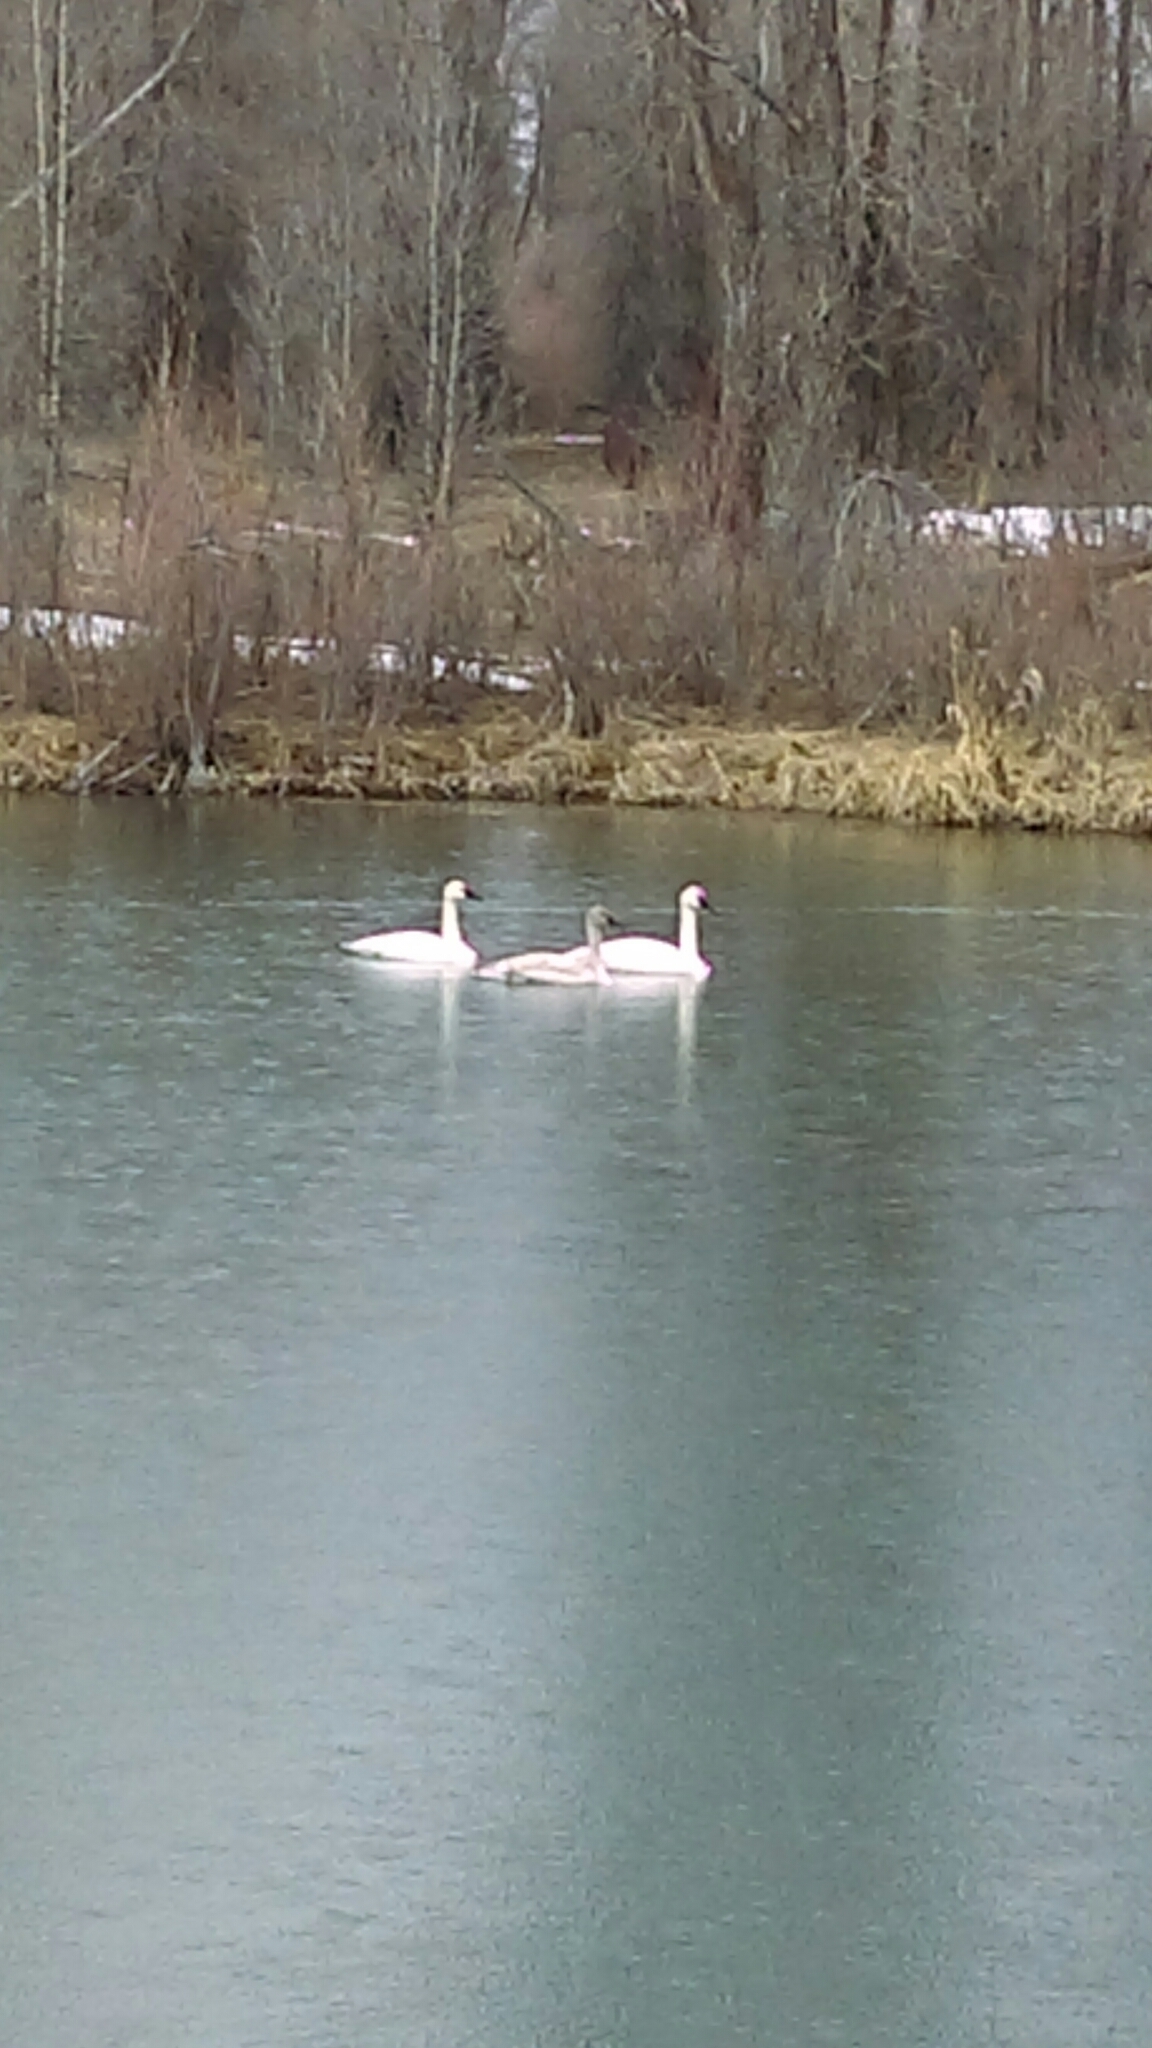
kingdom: Animalia
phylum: Chordata
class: Aves
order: Anseriformes
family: Anatidae
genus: Cygnus
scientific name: Cygnus buccinator
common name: Trumpeter swan
